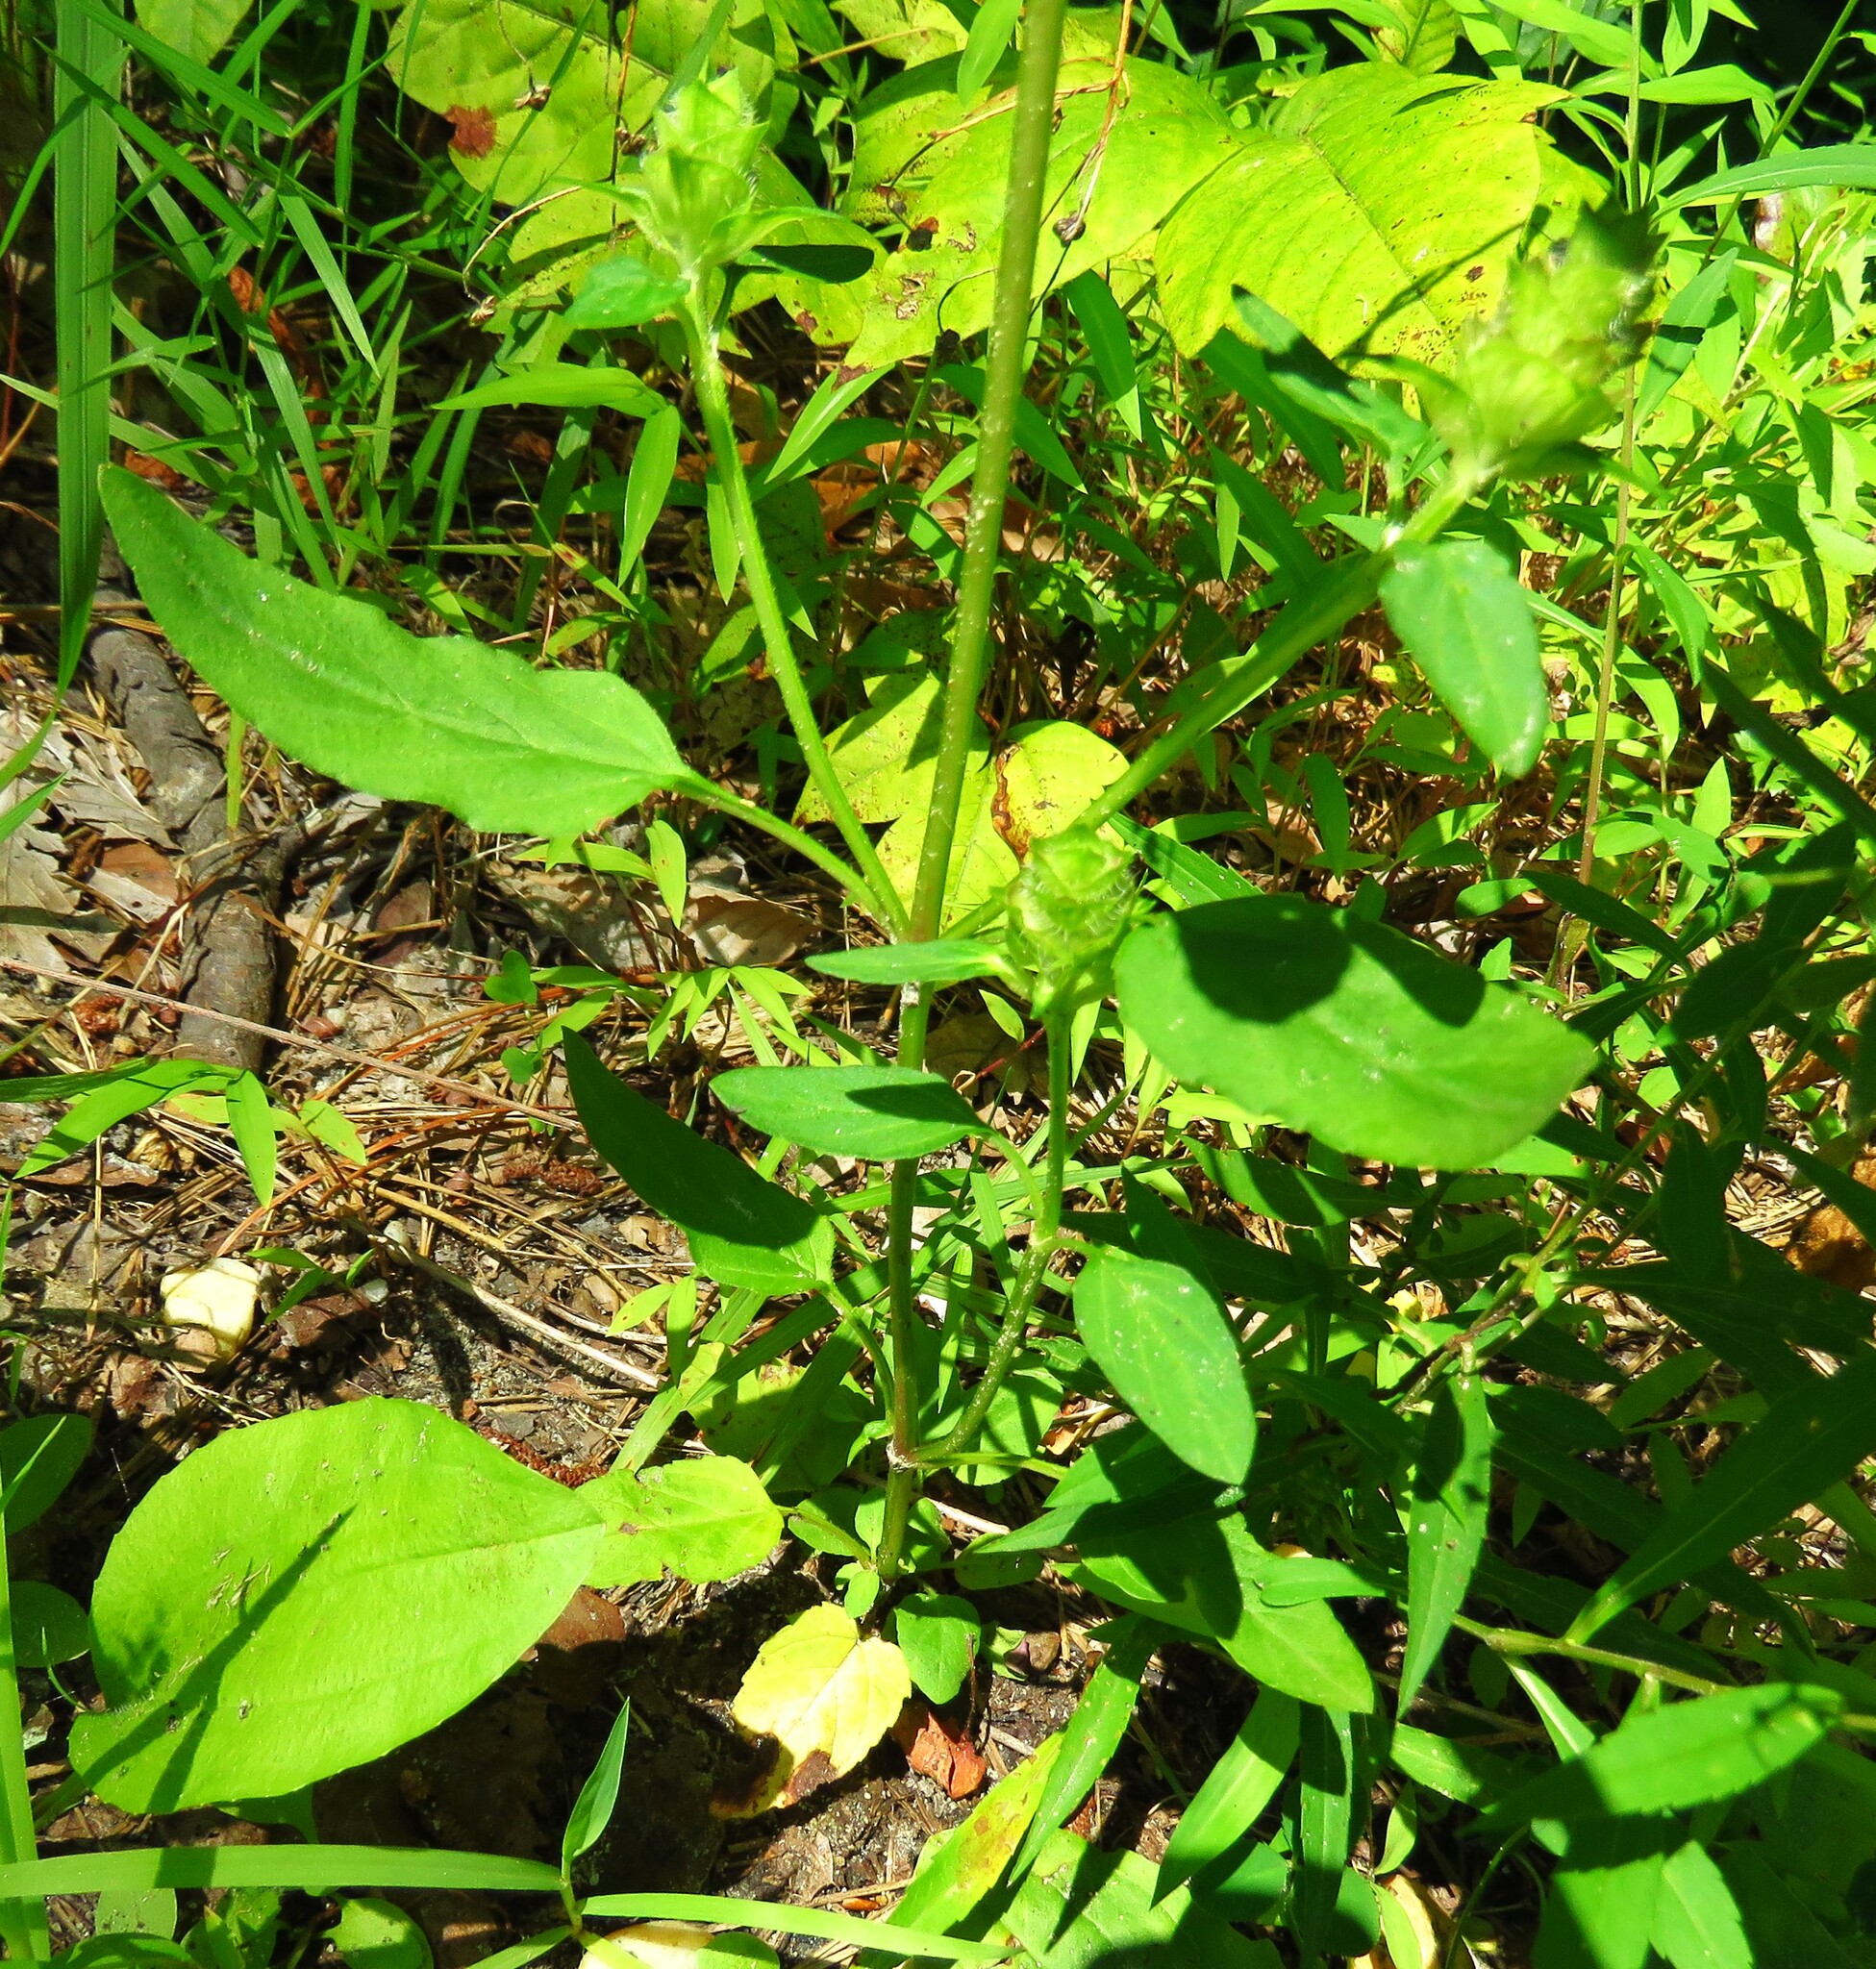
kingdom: Plantae
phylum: Tracheophyta
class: Magnoliopsida
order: Lamiales
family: Lamiaceae
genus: Prunella
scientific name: Prunella vulgaris
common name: Heal-all
